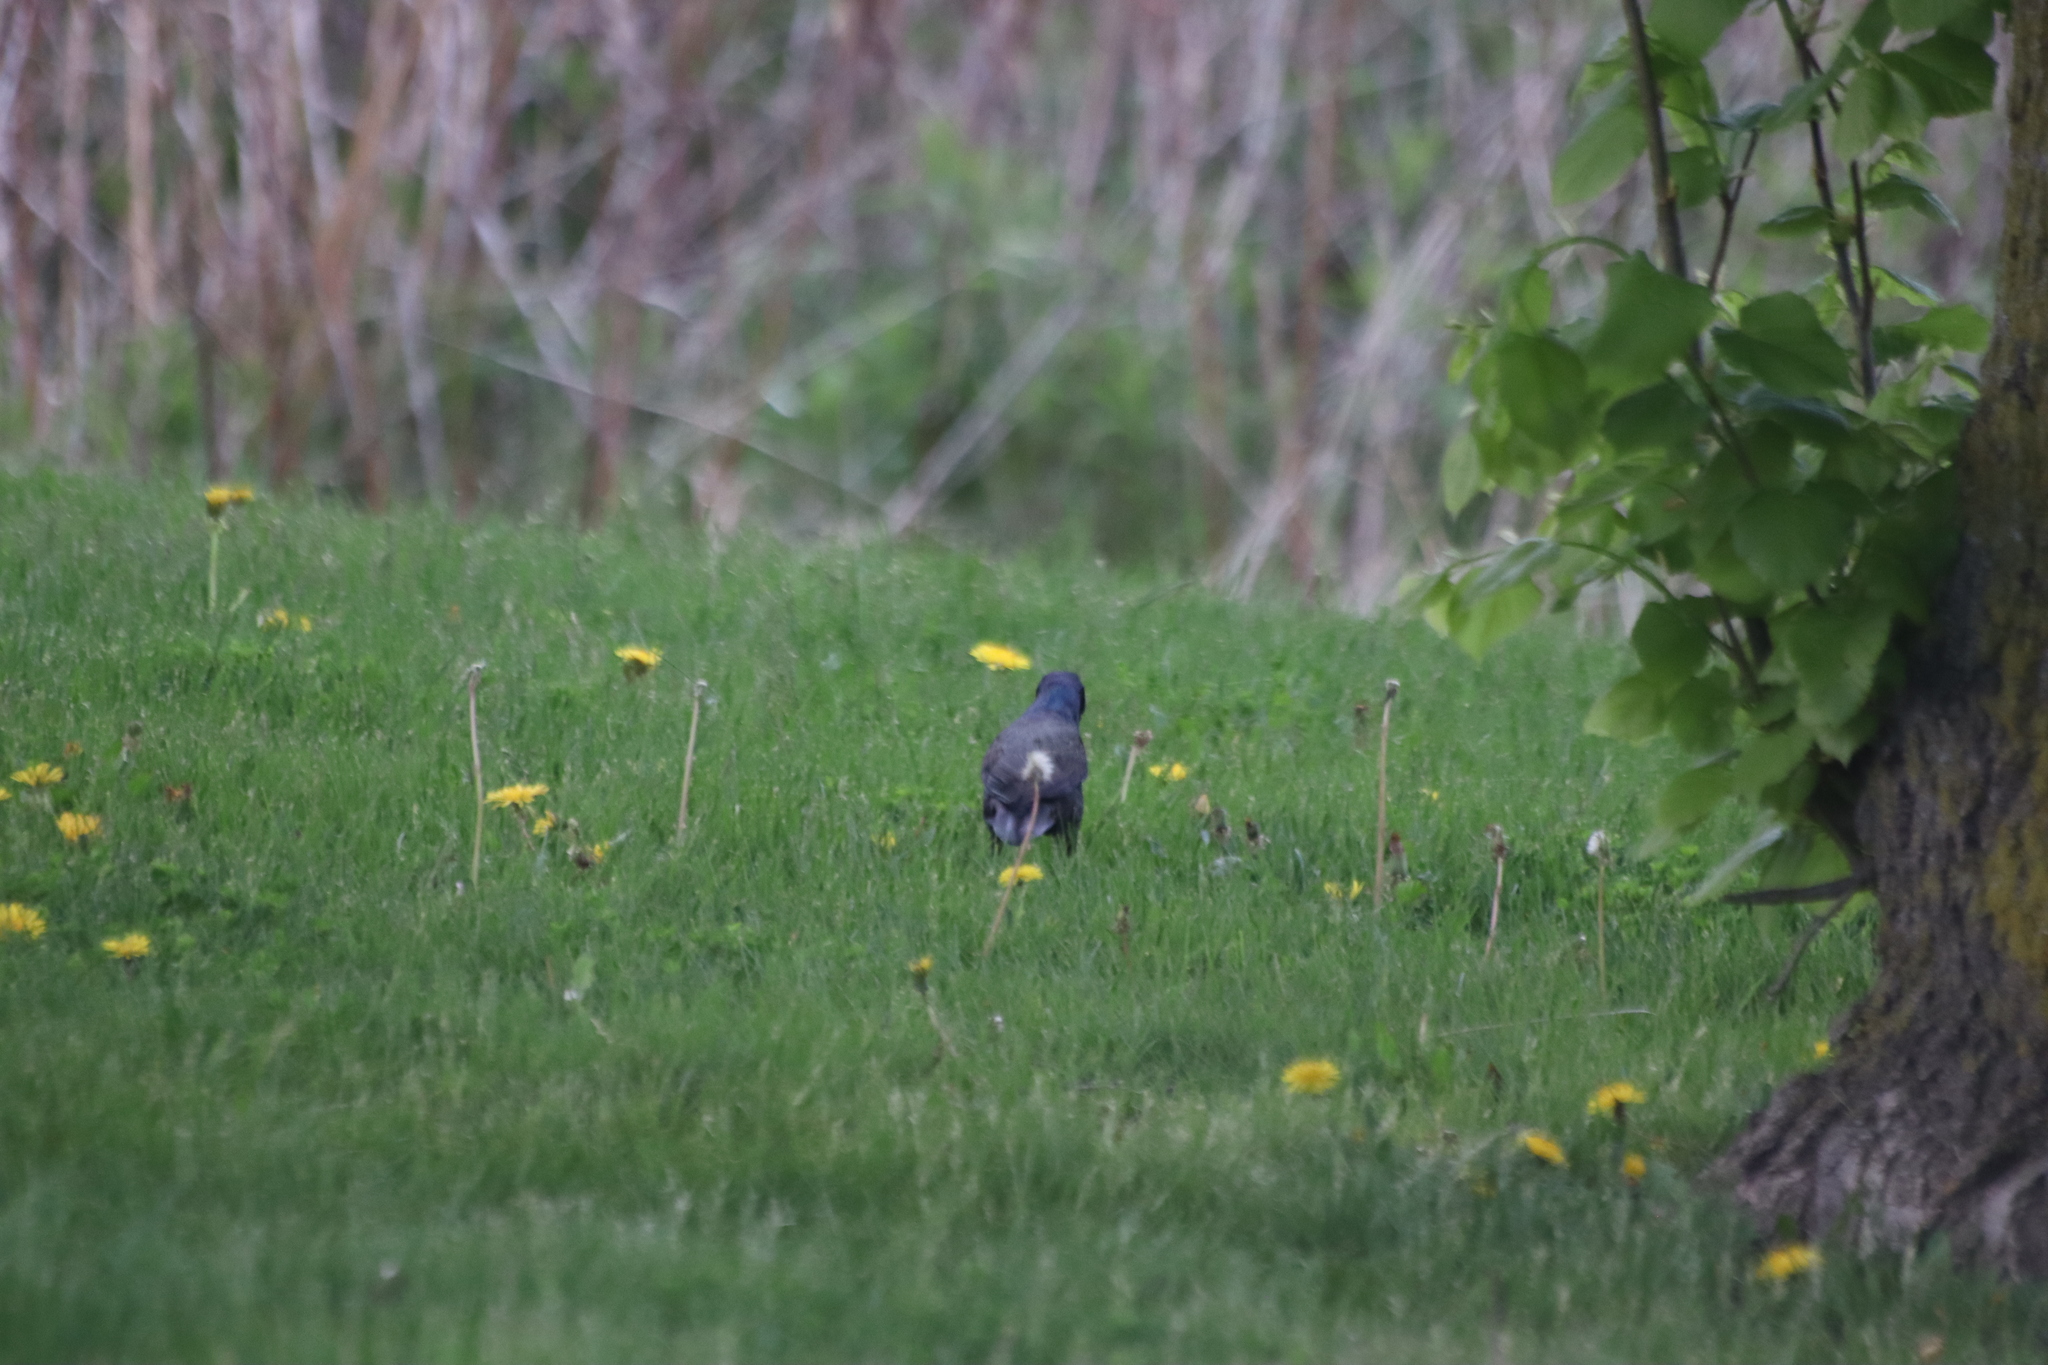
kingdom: Animalia
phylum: Chordata
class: Aves
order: Passeriformes
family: Icteridae
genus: Quiscalus
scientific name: Quiscalus quiscula
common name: Common grackle
